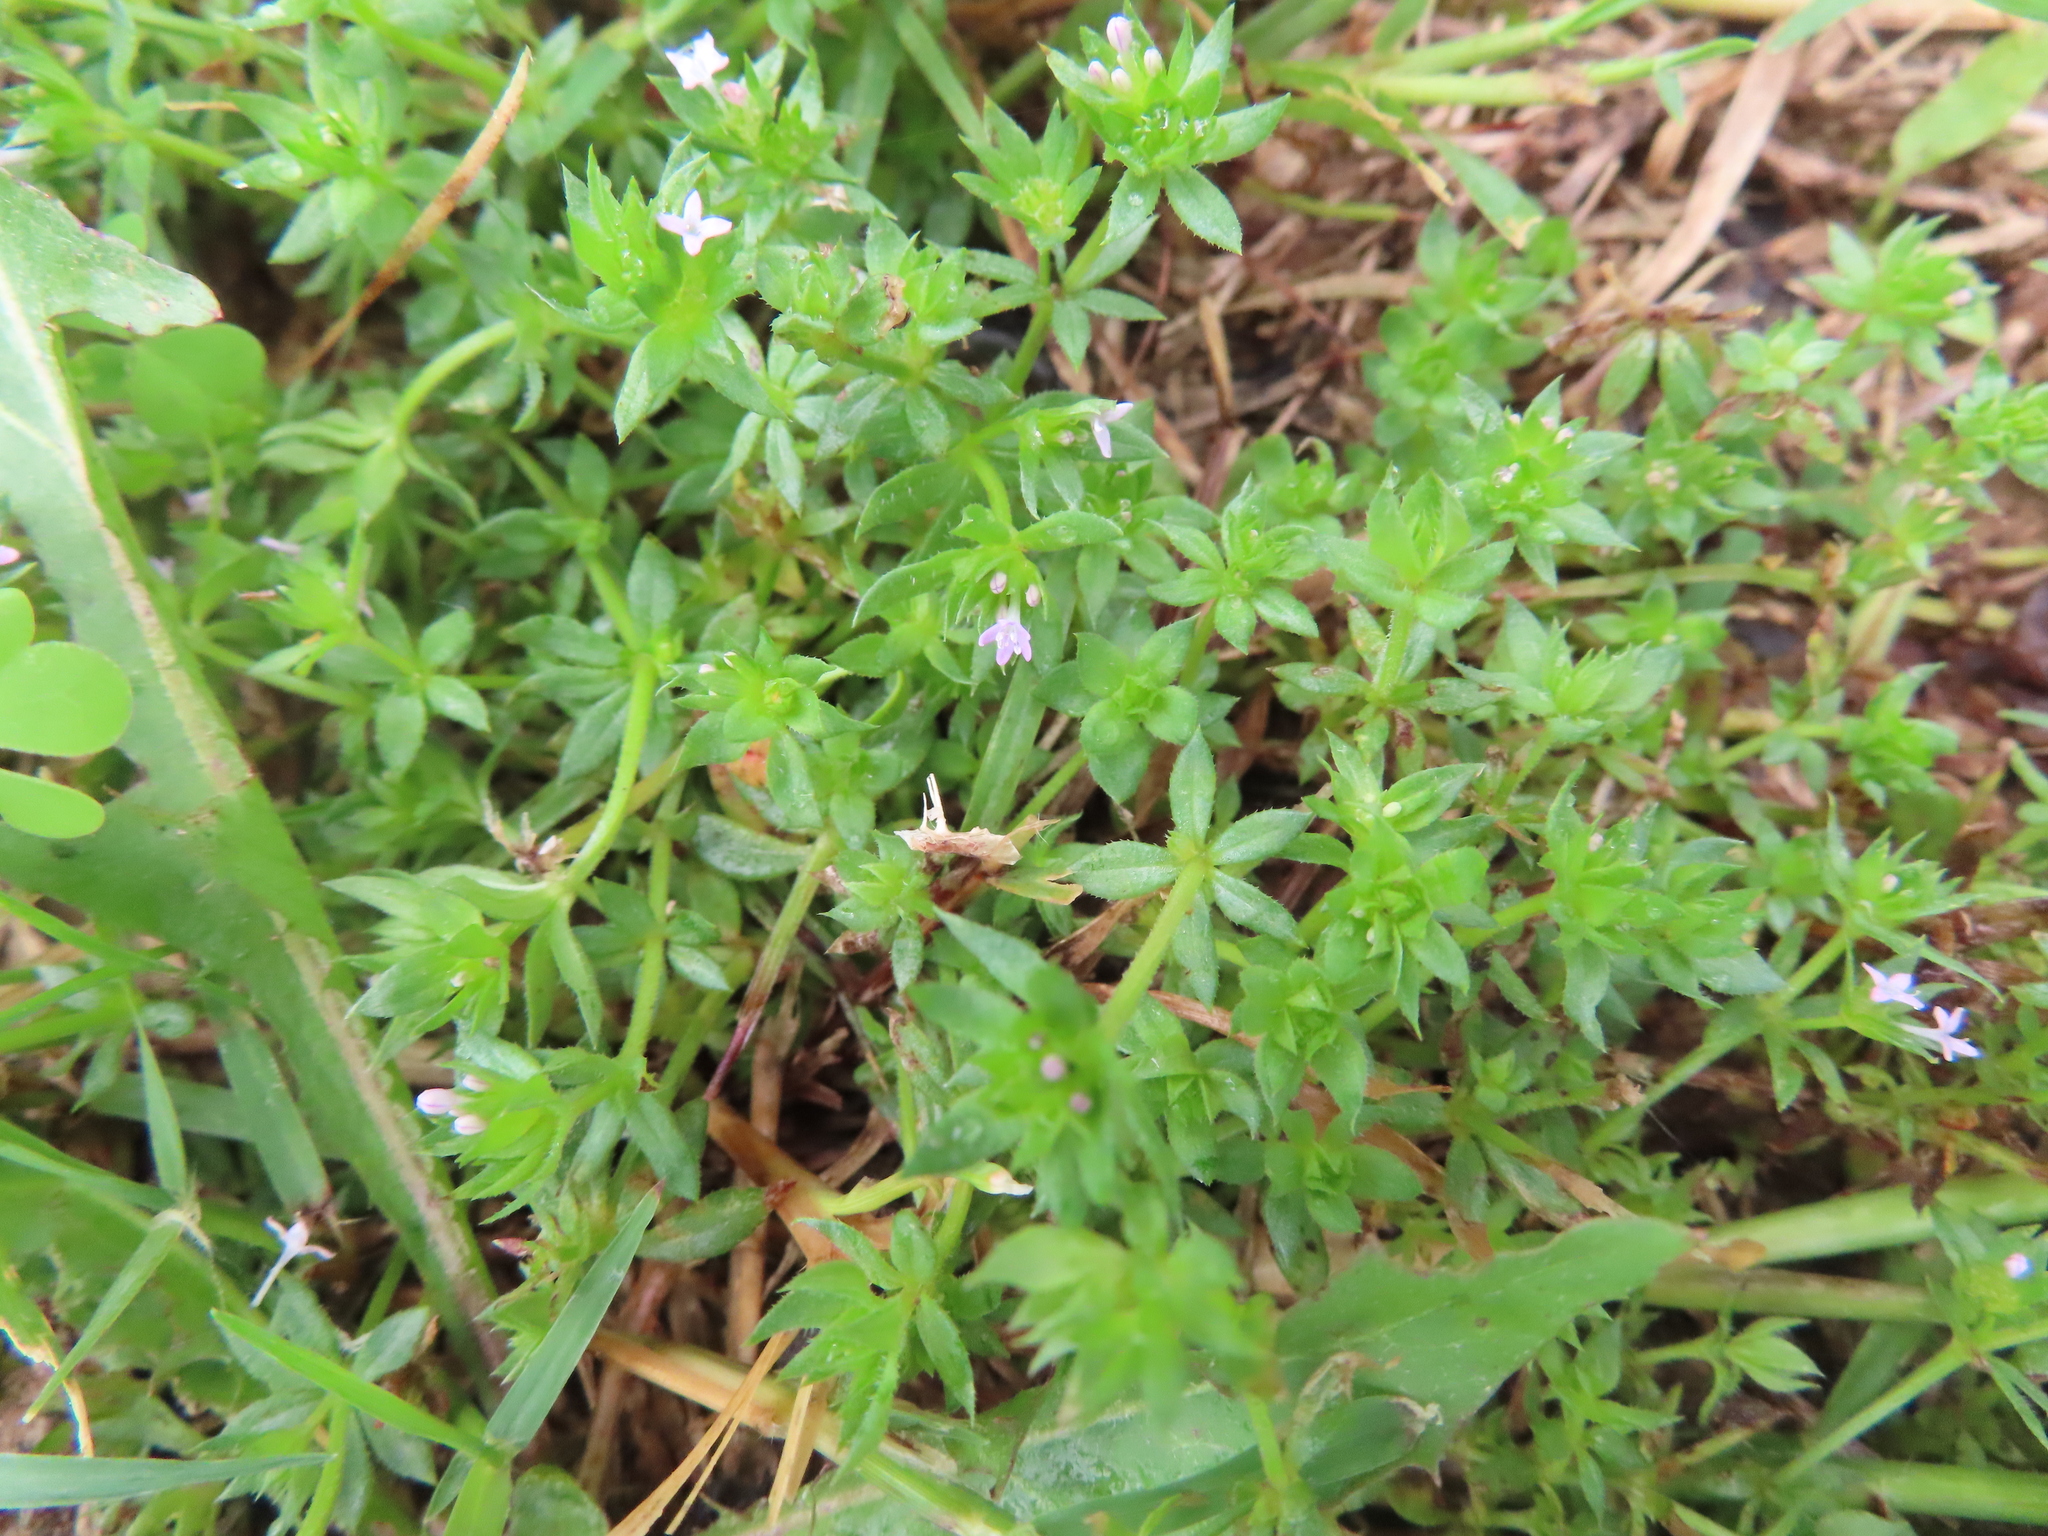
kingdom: Plantae
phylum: Tracheophyta
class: Magnoliopsida
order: Gentianales
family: Rubiaceae
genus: Sherardia
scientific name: Sherardia arvensis
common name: Field madder
